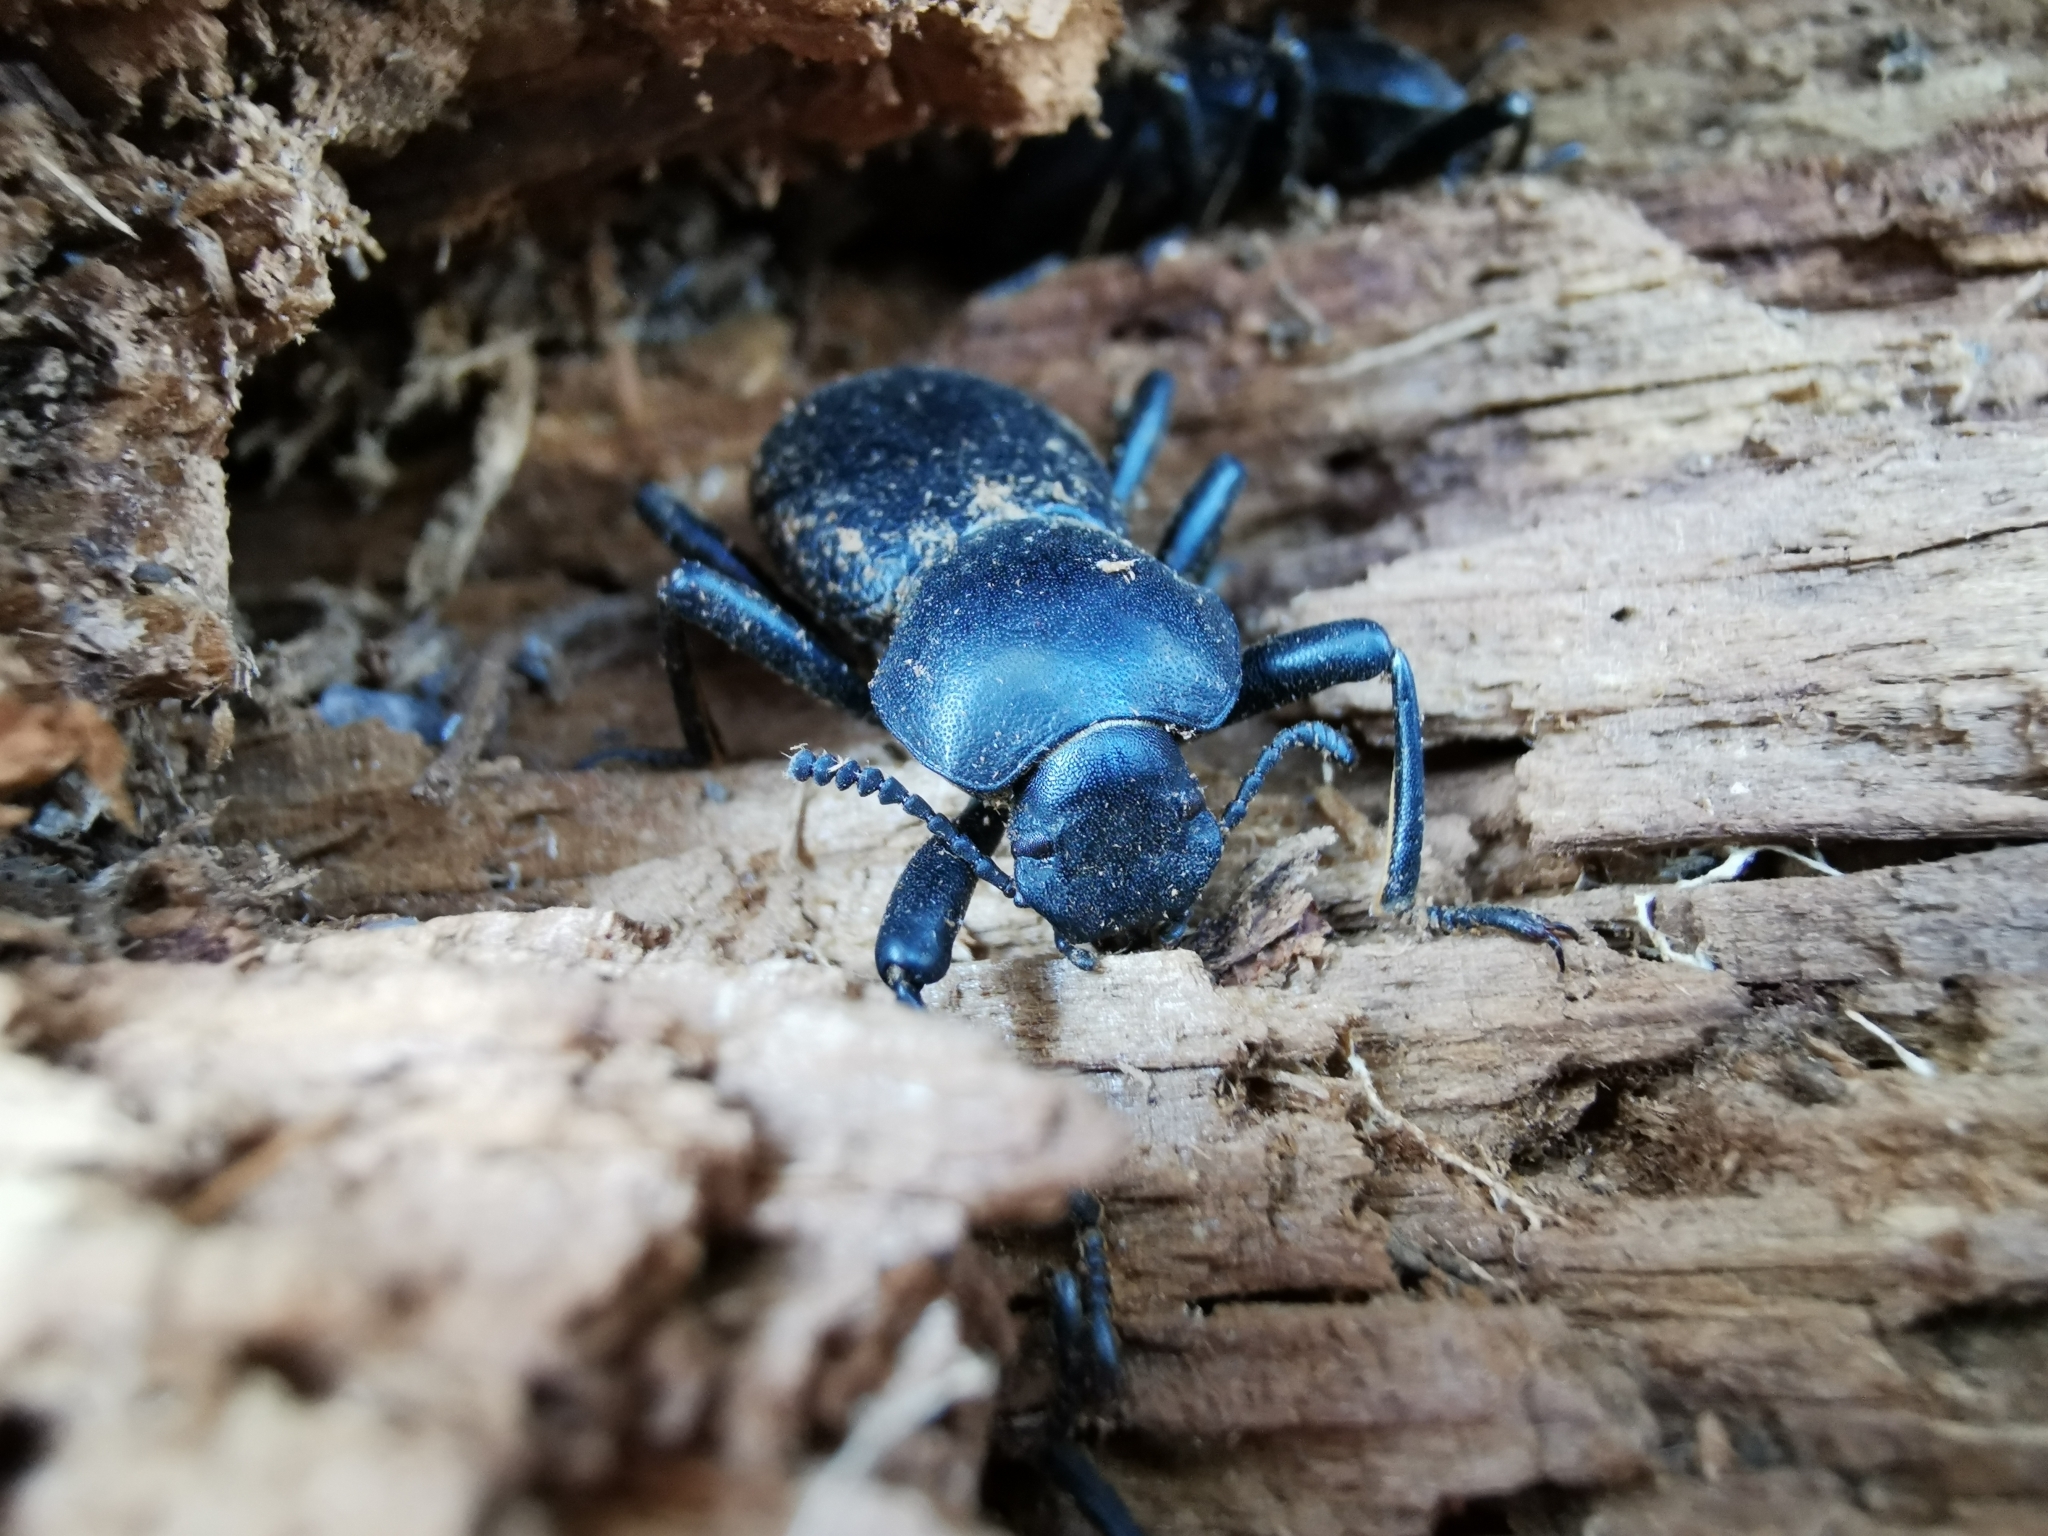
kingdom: Animalia
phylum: Arthropoda
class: Insecta
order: Coleoptera
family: Tenebrionidae
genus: Coelocnemis
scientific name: Coelocnemis dilaticollis
